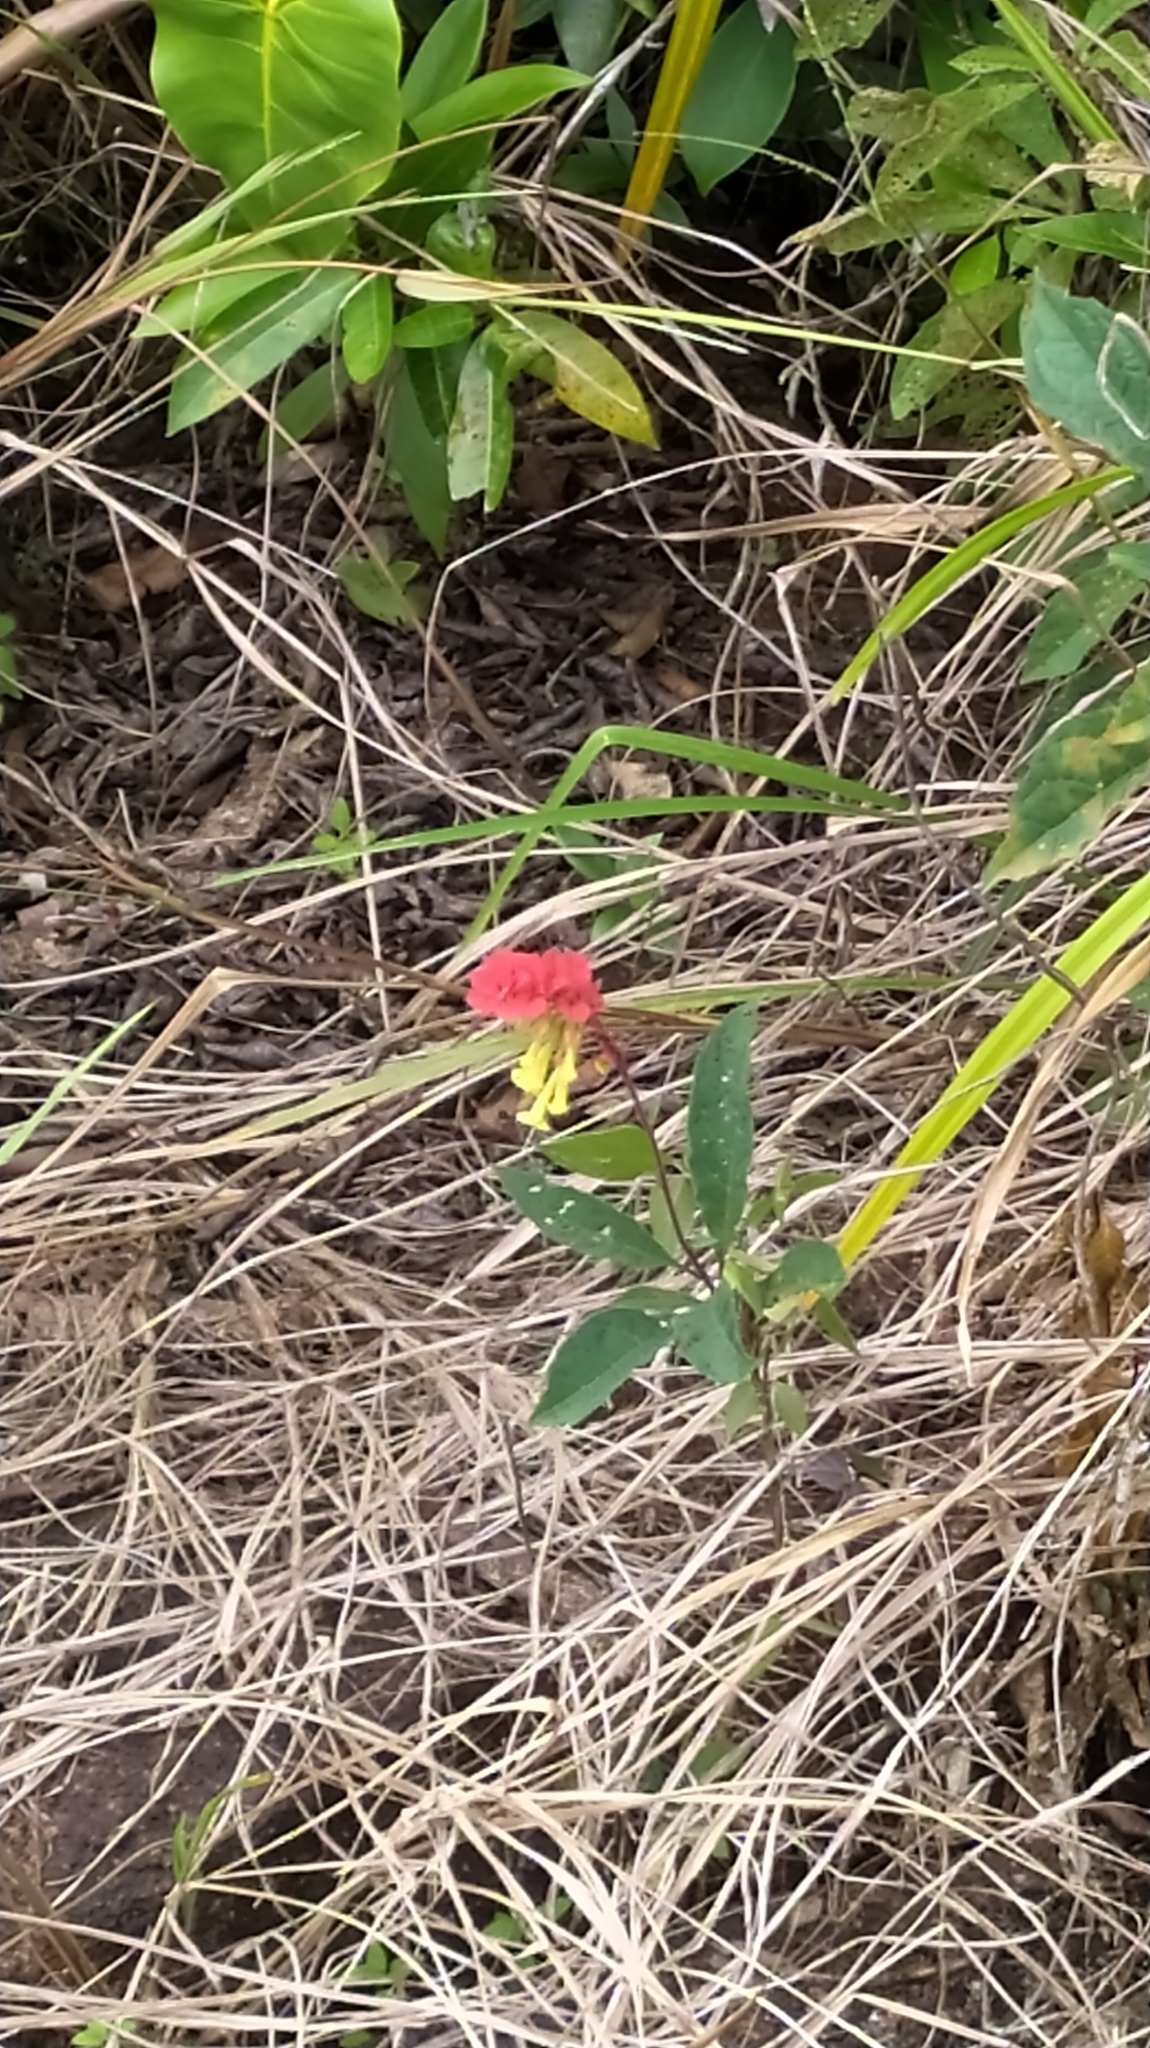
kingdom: Plantae
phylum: Tracheophyta
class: Magnoliopsida
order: Lamiales
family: Lamiaceae
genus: Amasonia
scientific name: Amasonia campestris
